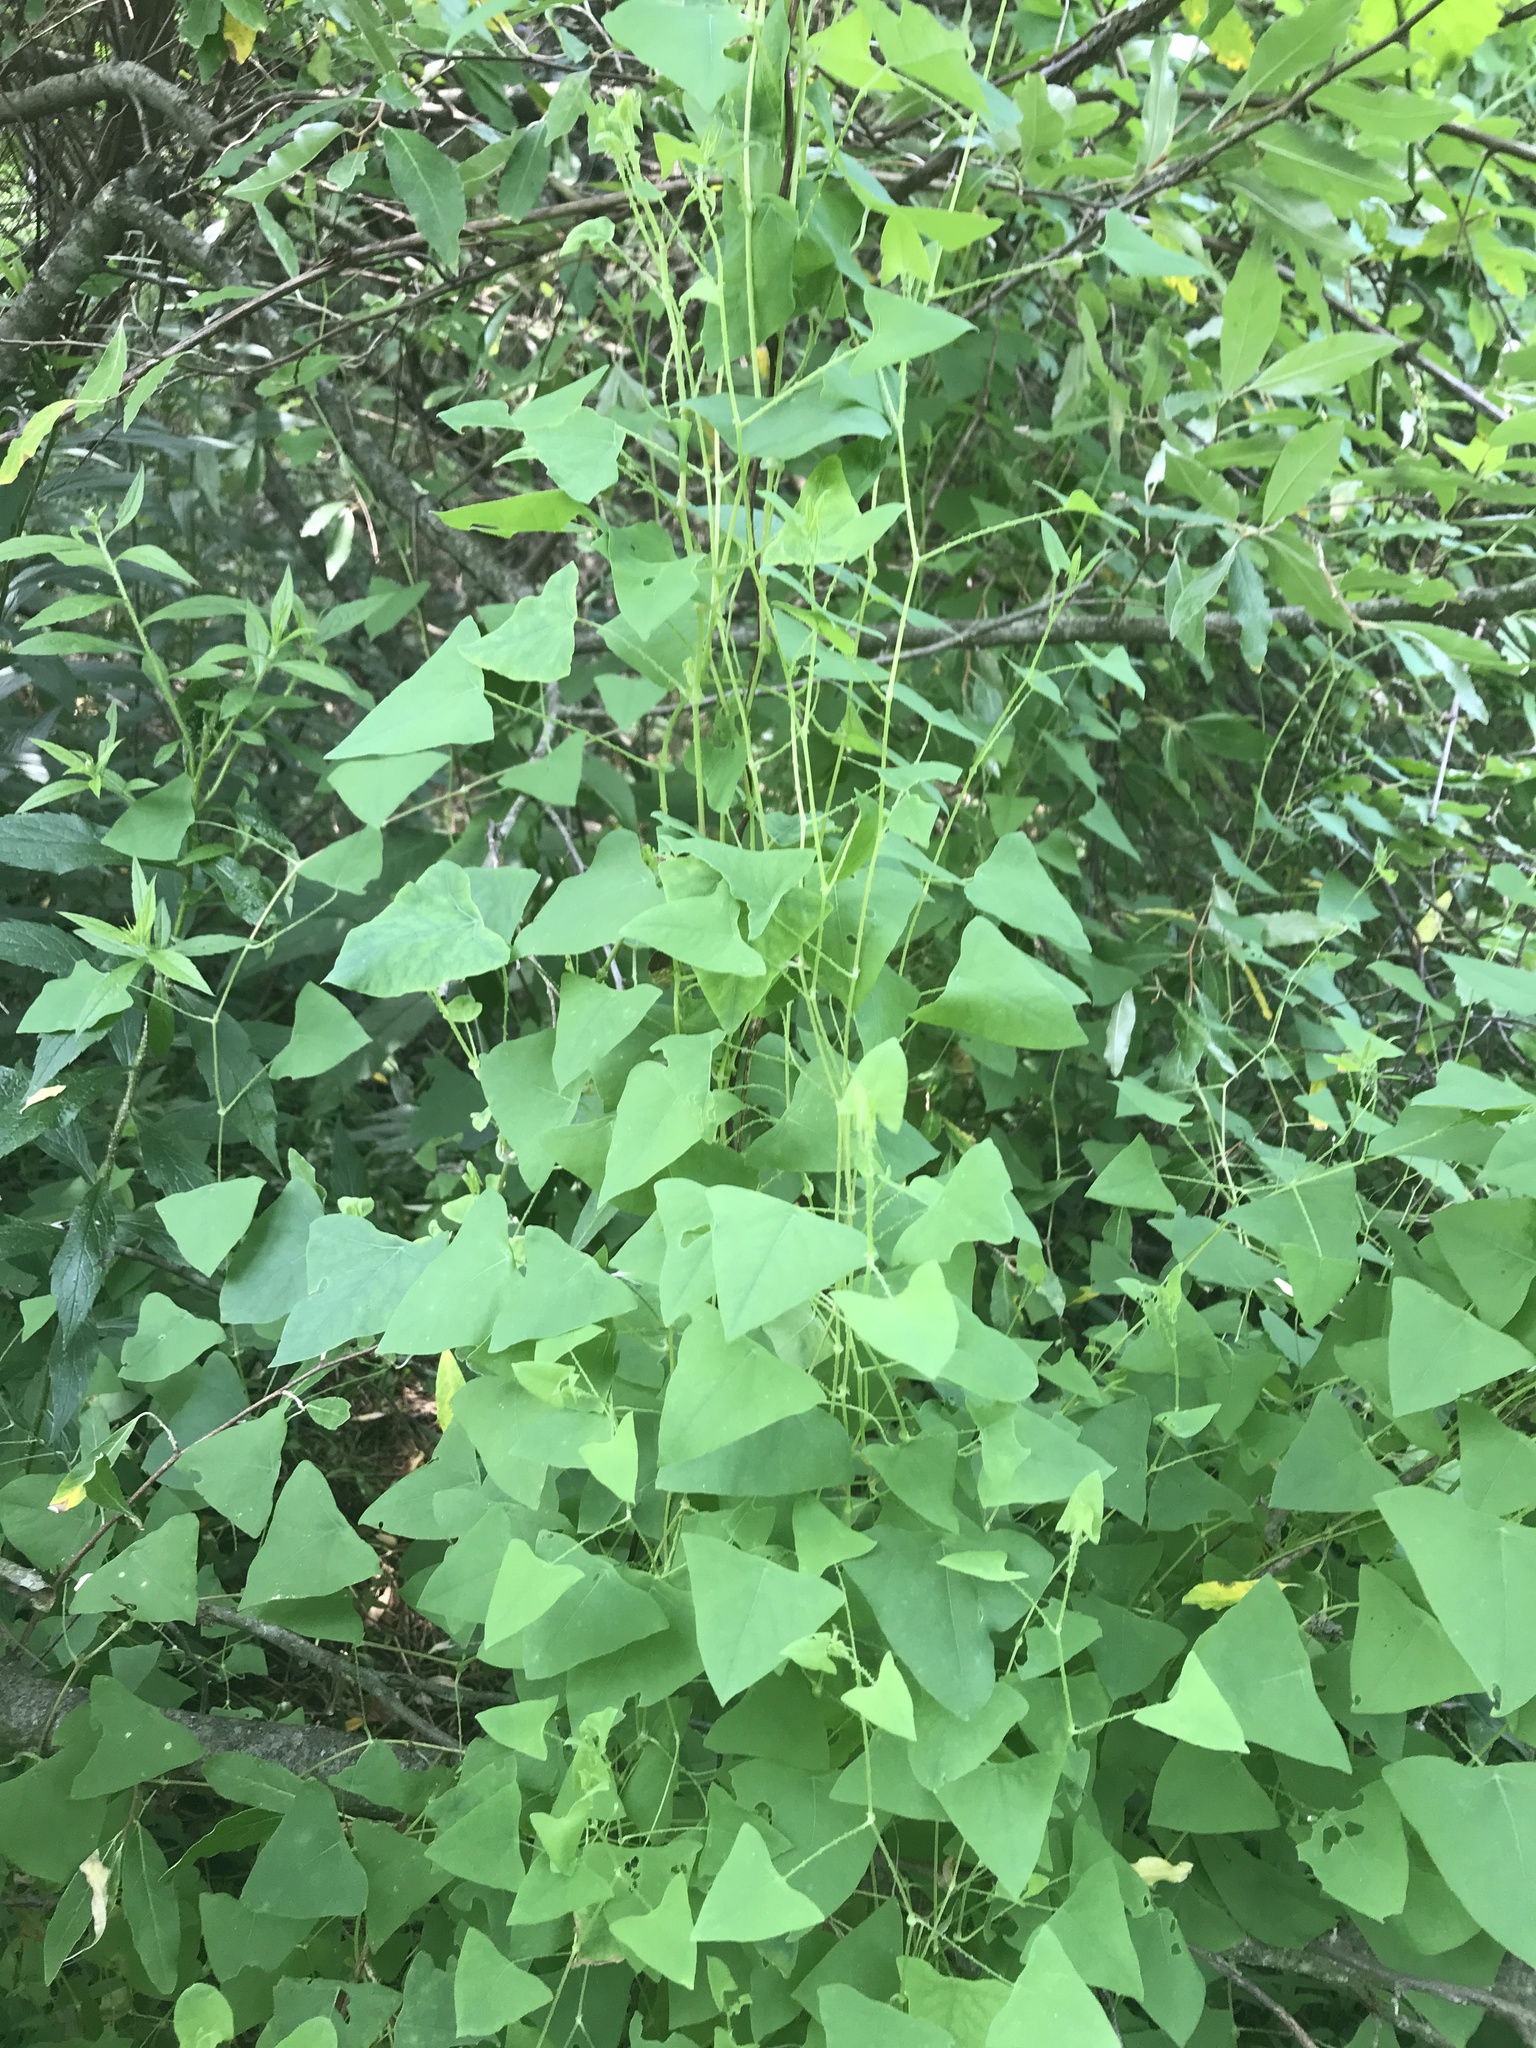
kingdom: Plantae
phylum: Tracheophyta
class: Magnoliopsida
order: Caryophyllales
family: Polygonaceae
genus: Persicaria
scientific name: Persicaria perfoliata
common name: Asiatic tearthumb
